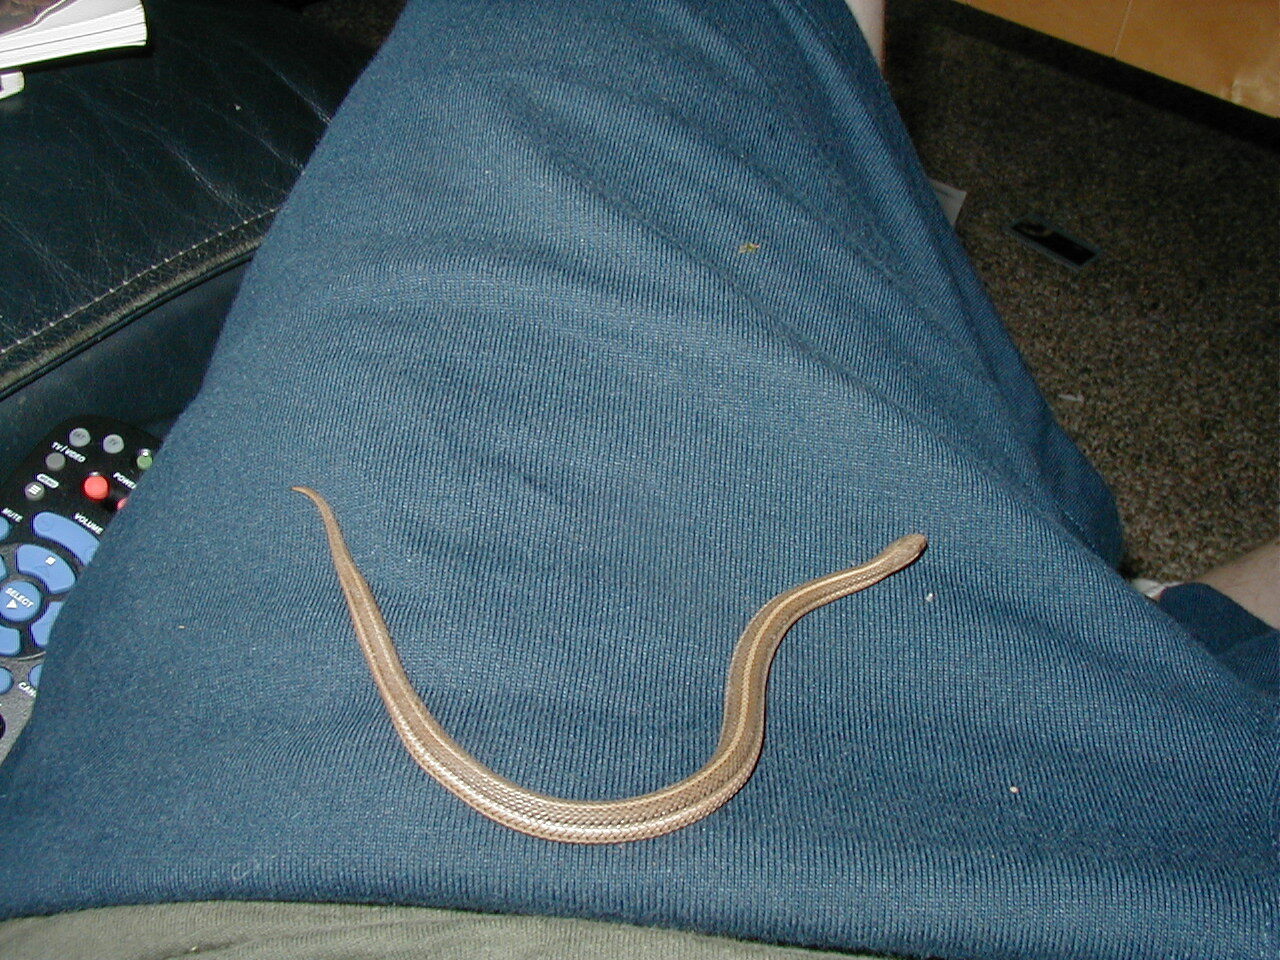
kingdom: Animalia
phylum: Chordata
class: Squamata
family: Colubridae
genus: Tropidoclonion
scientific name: Tropidoclonion lineatum
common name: Lined snake
